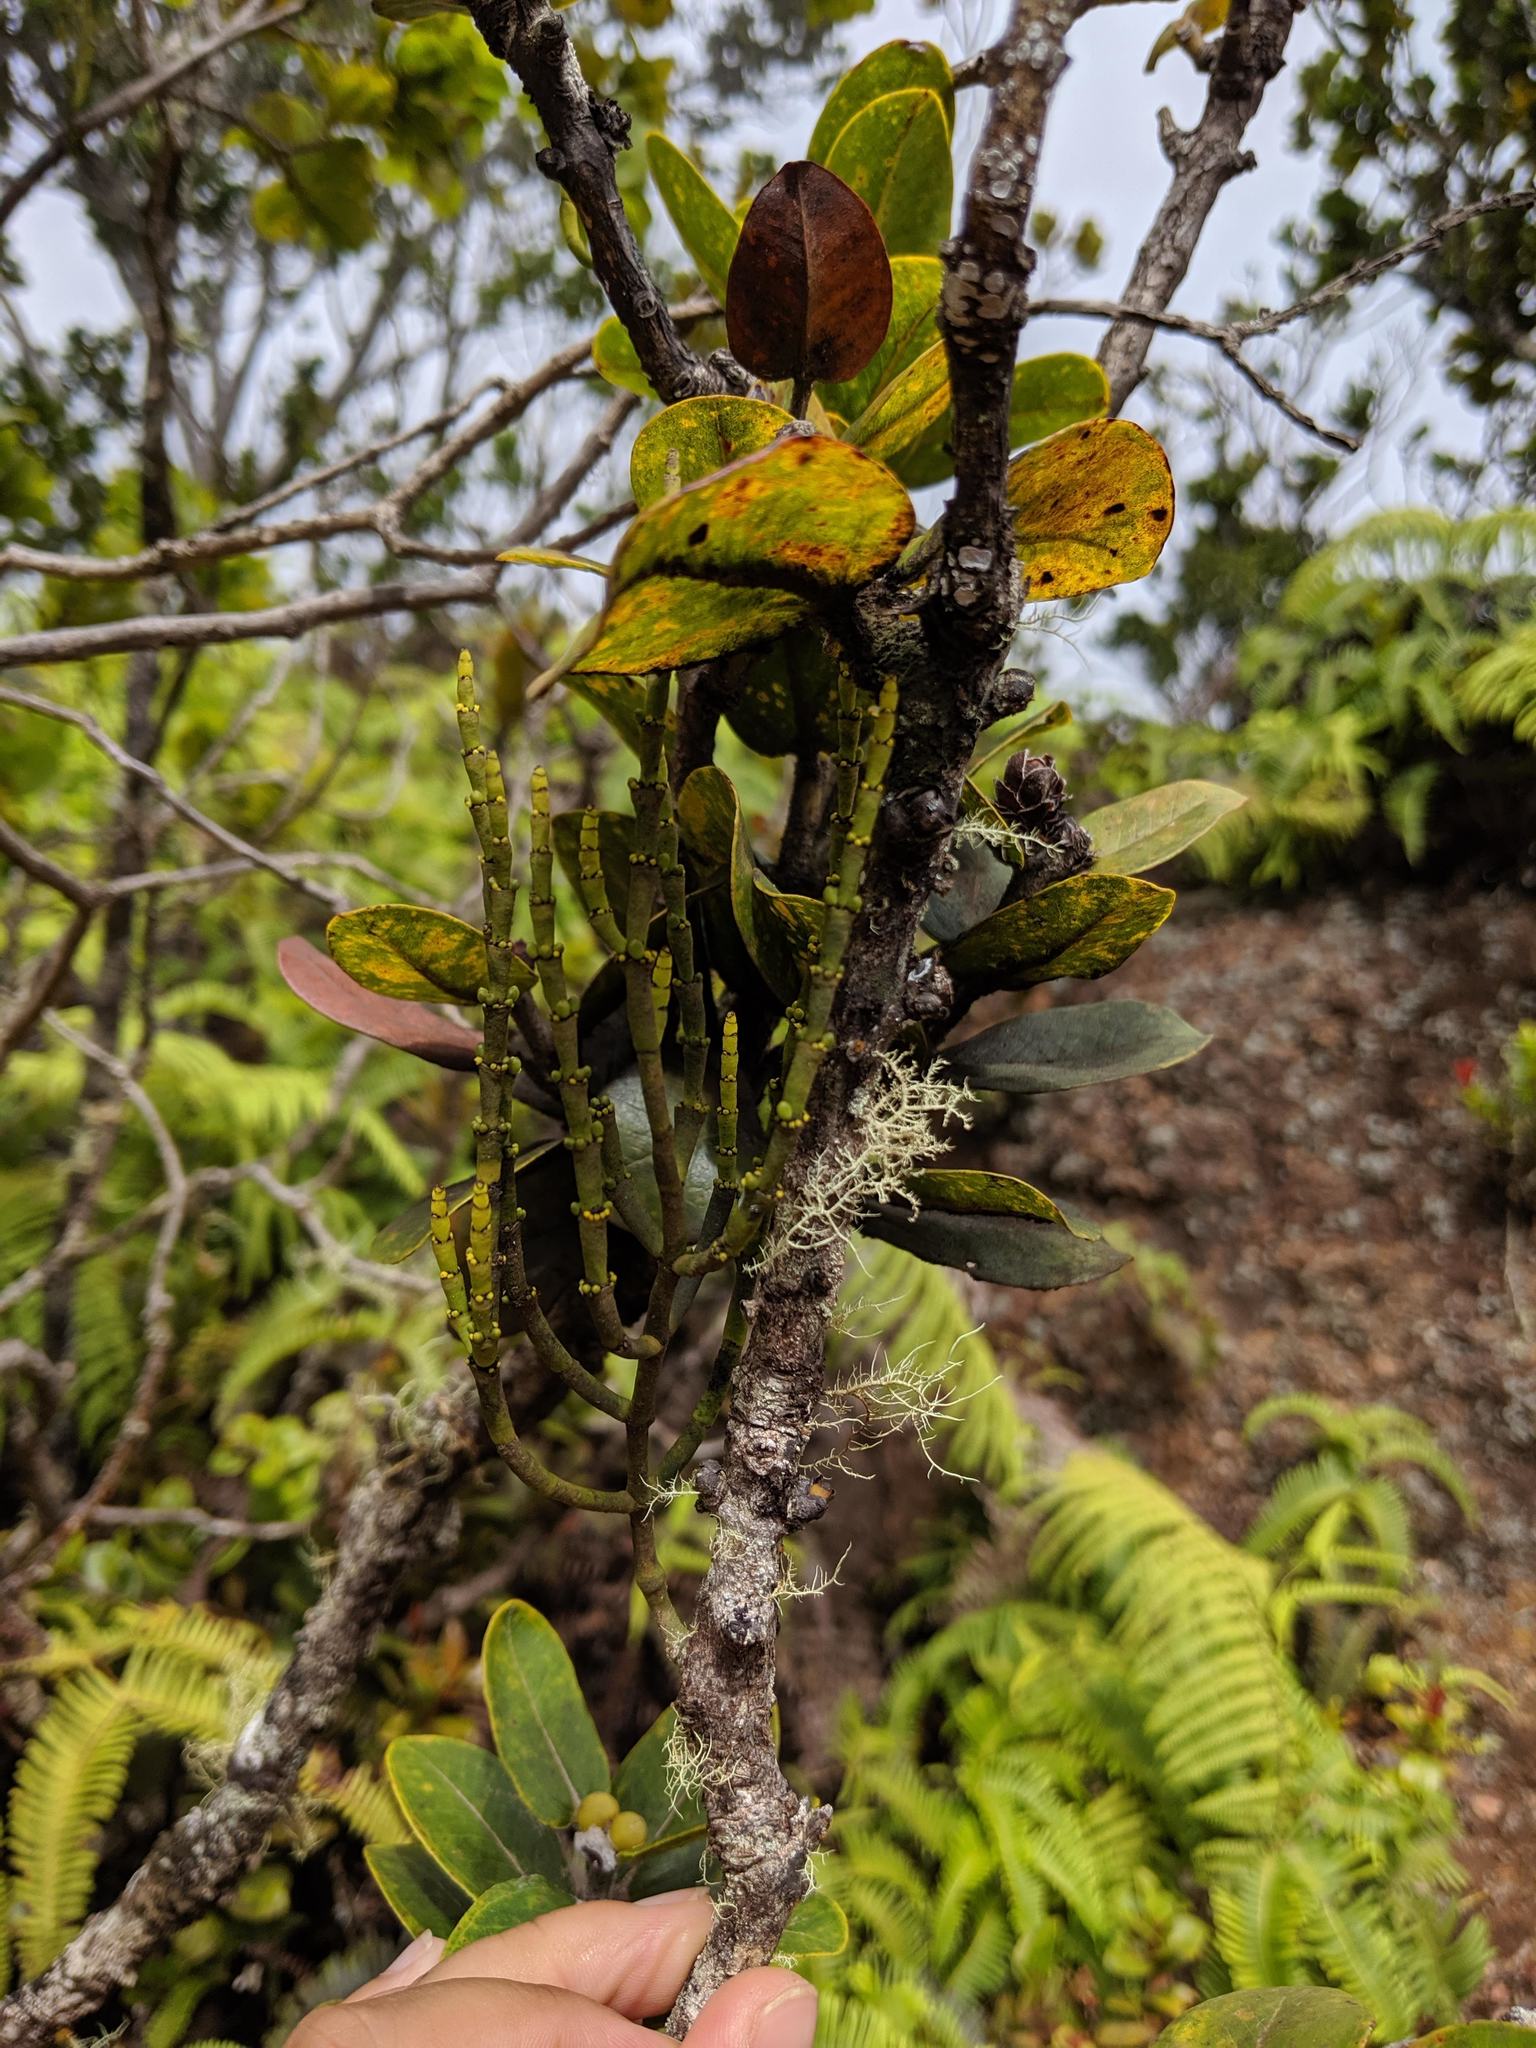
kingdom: Plantae
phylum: Tracheophyta
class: Magnoliopsida
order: Santalales
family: Viscaceae
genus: Korthalsella
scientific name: Korthalsella remyana
